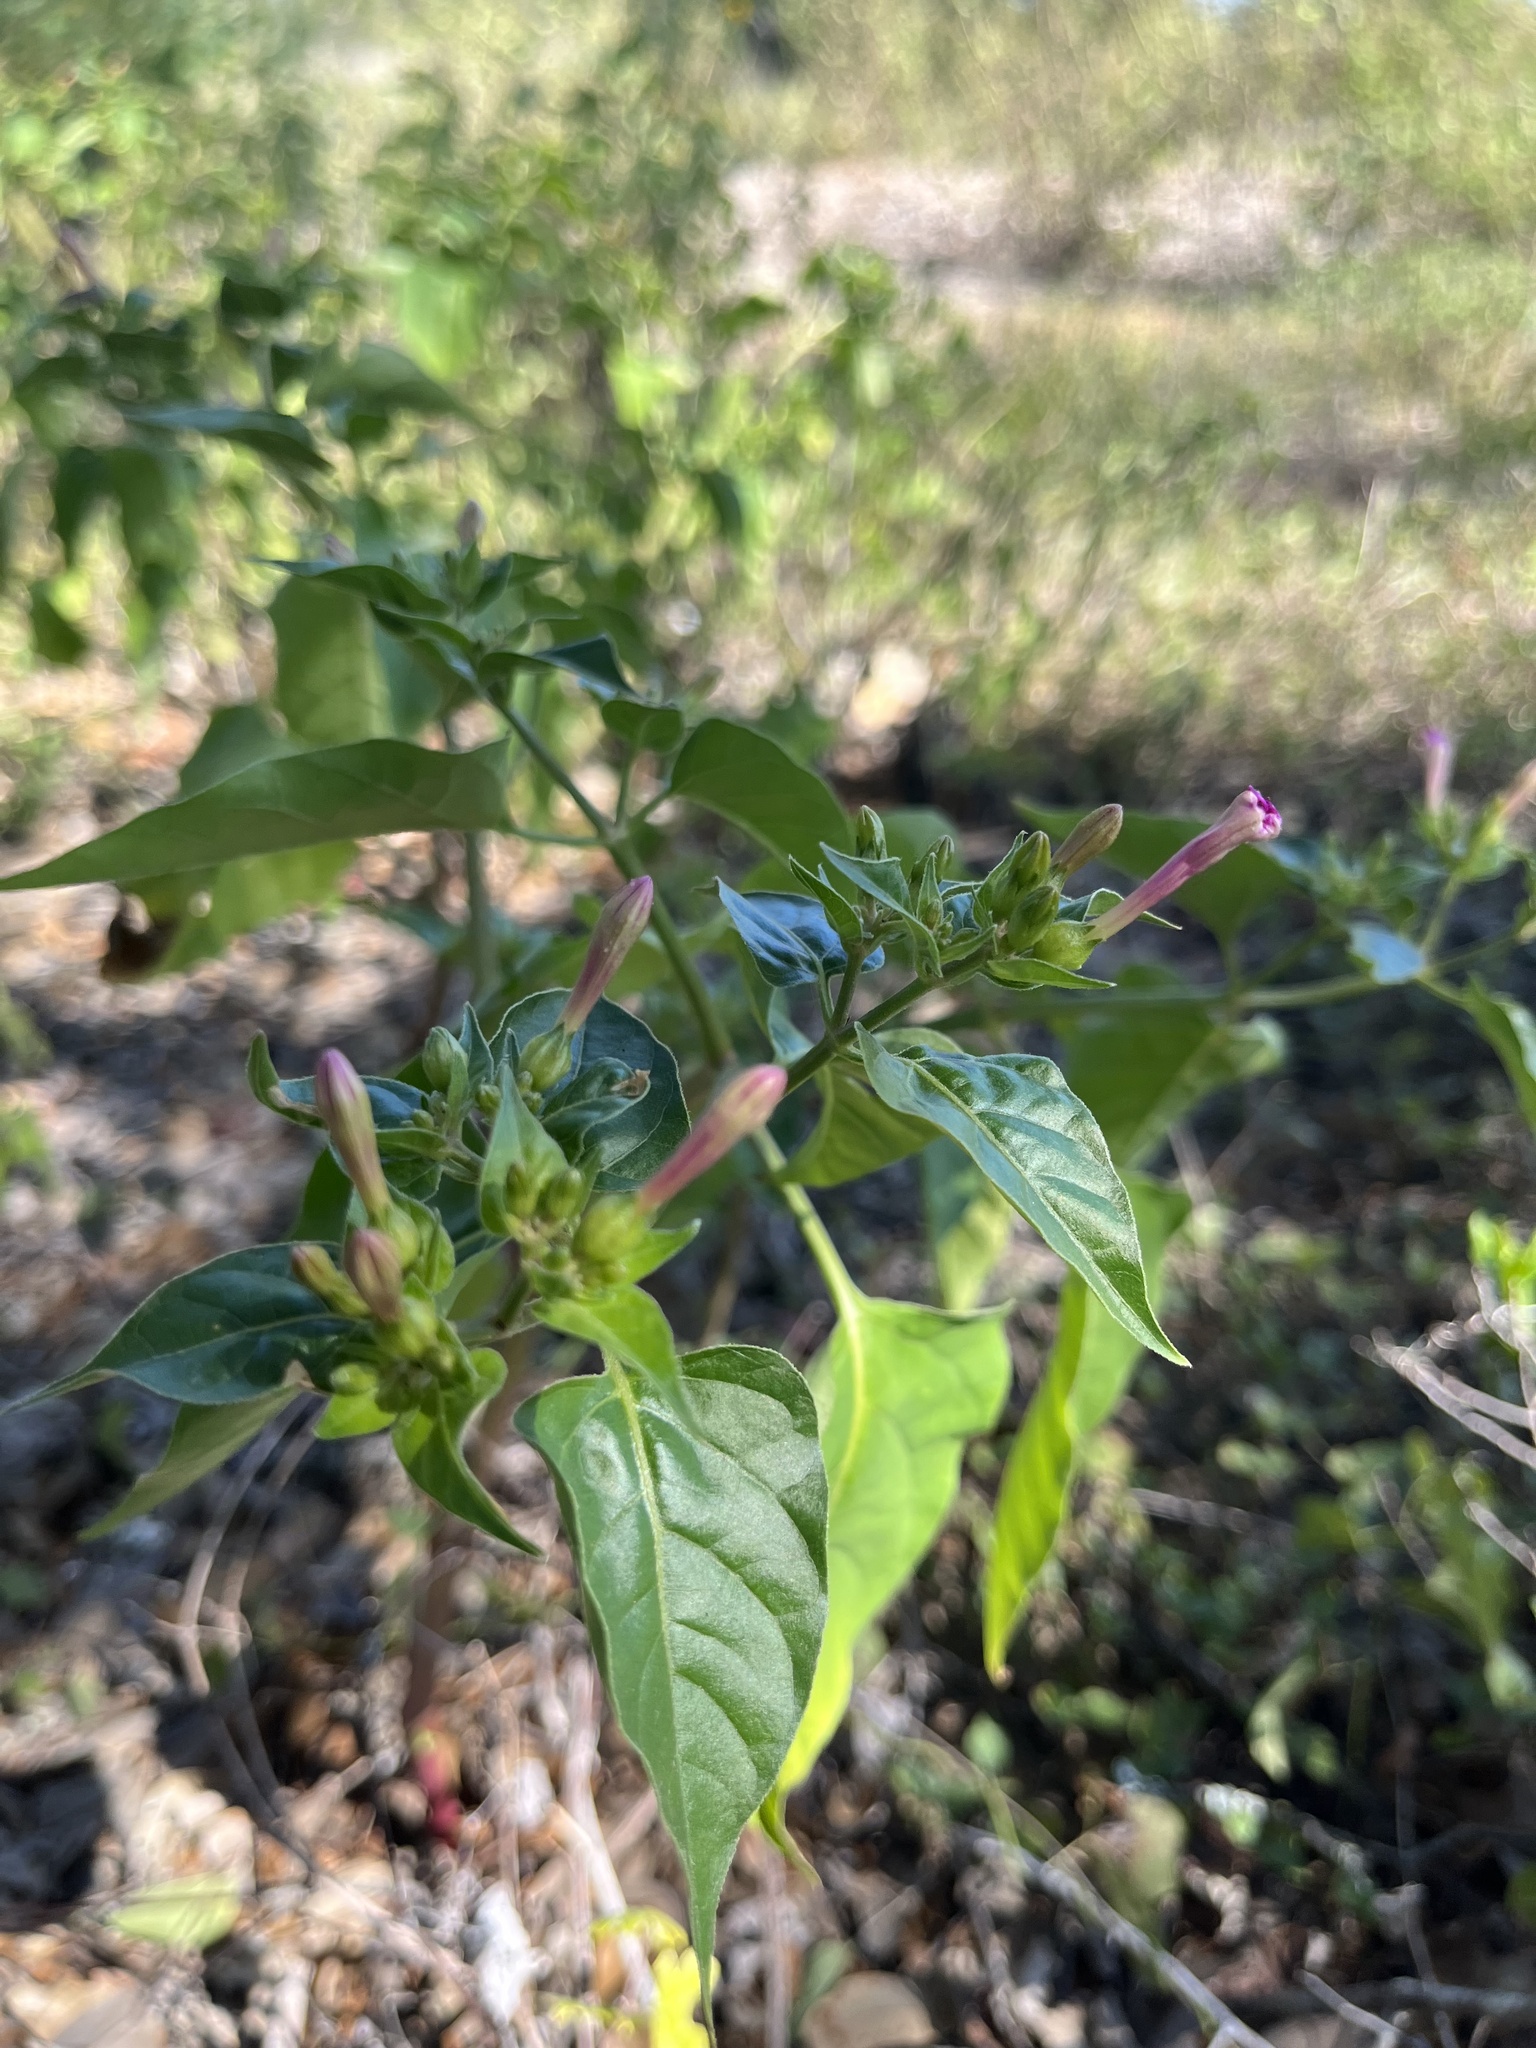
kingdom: Plantae
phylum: Tracheophyta
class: Magnoliopsida
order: Caryophyllales
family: Nyctaginaceae
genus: Mirabilis
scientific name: Mirabilis jalapa
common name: Marvel-of-peru
